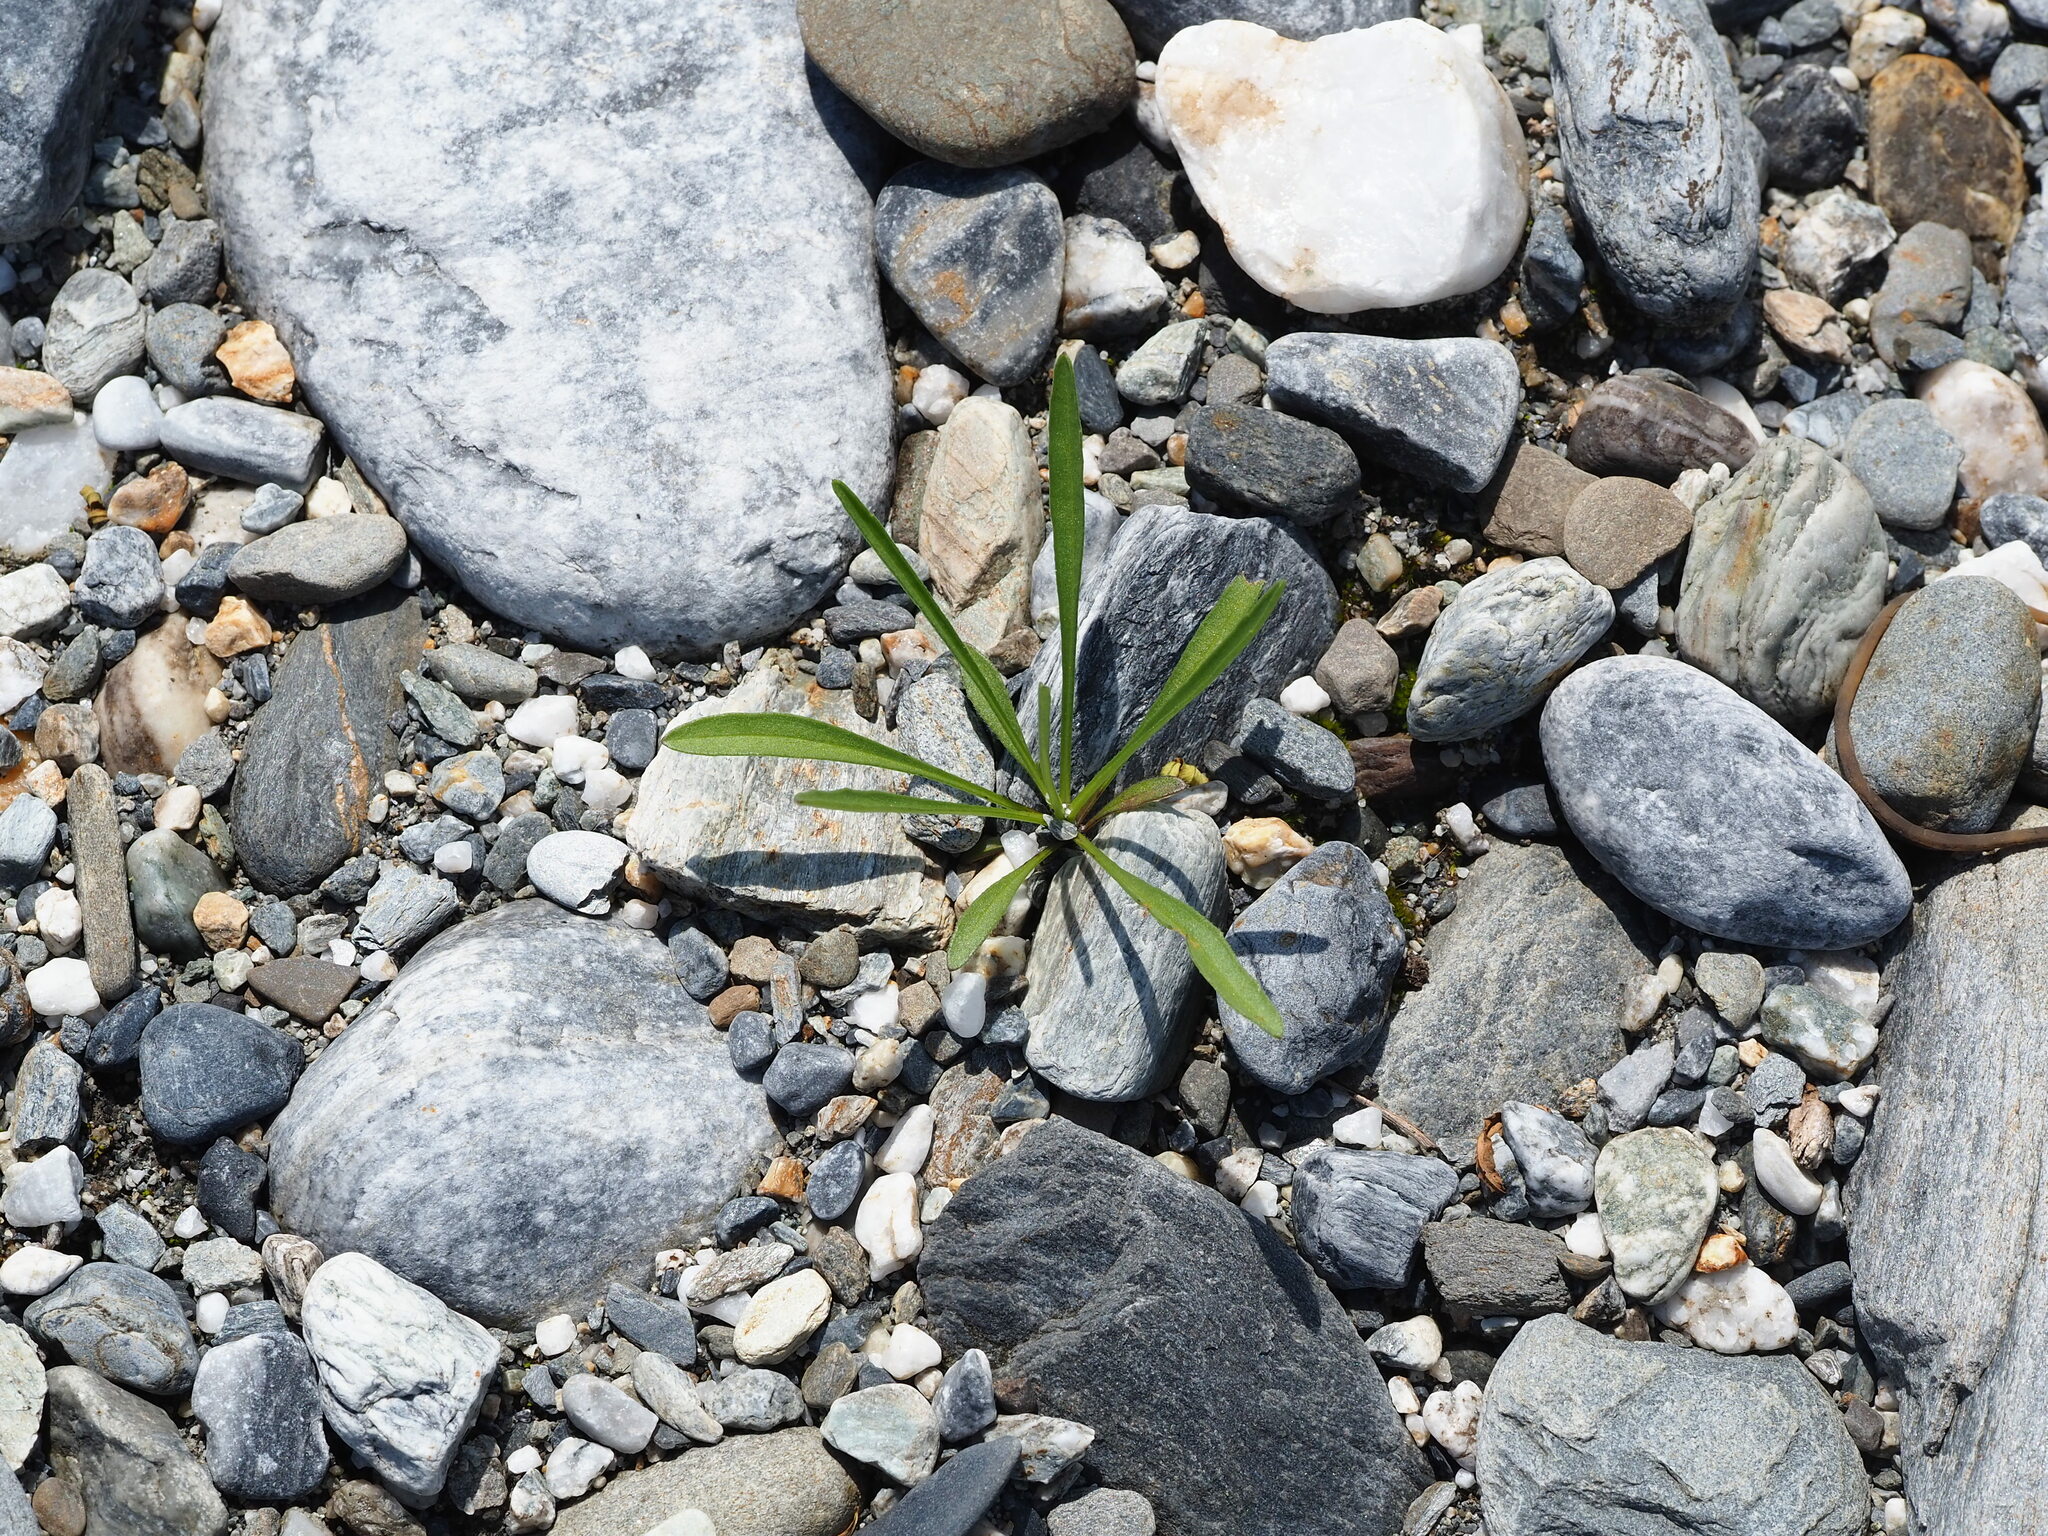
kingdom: Plantae
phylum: Tracheophyta
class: Magnoliopsida
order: Asterales
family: Asteraceae
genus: Heteropappus
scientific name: Heteropappus altaicus
